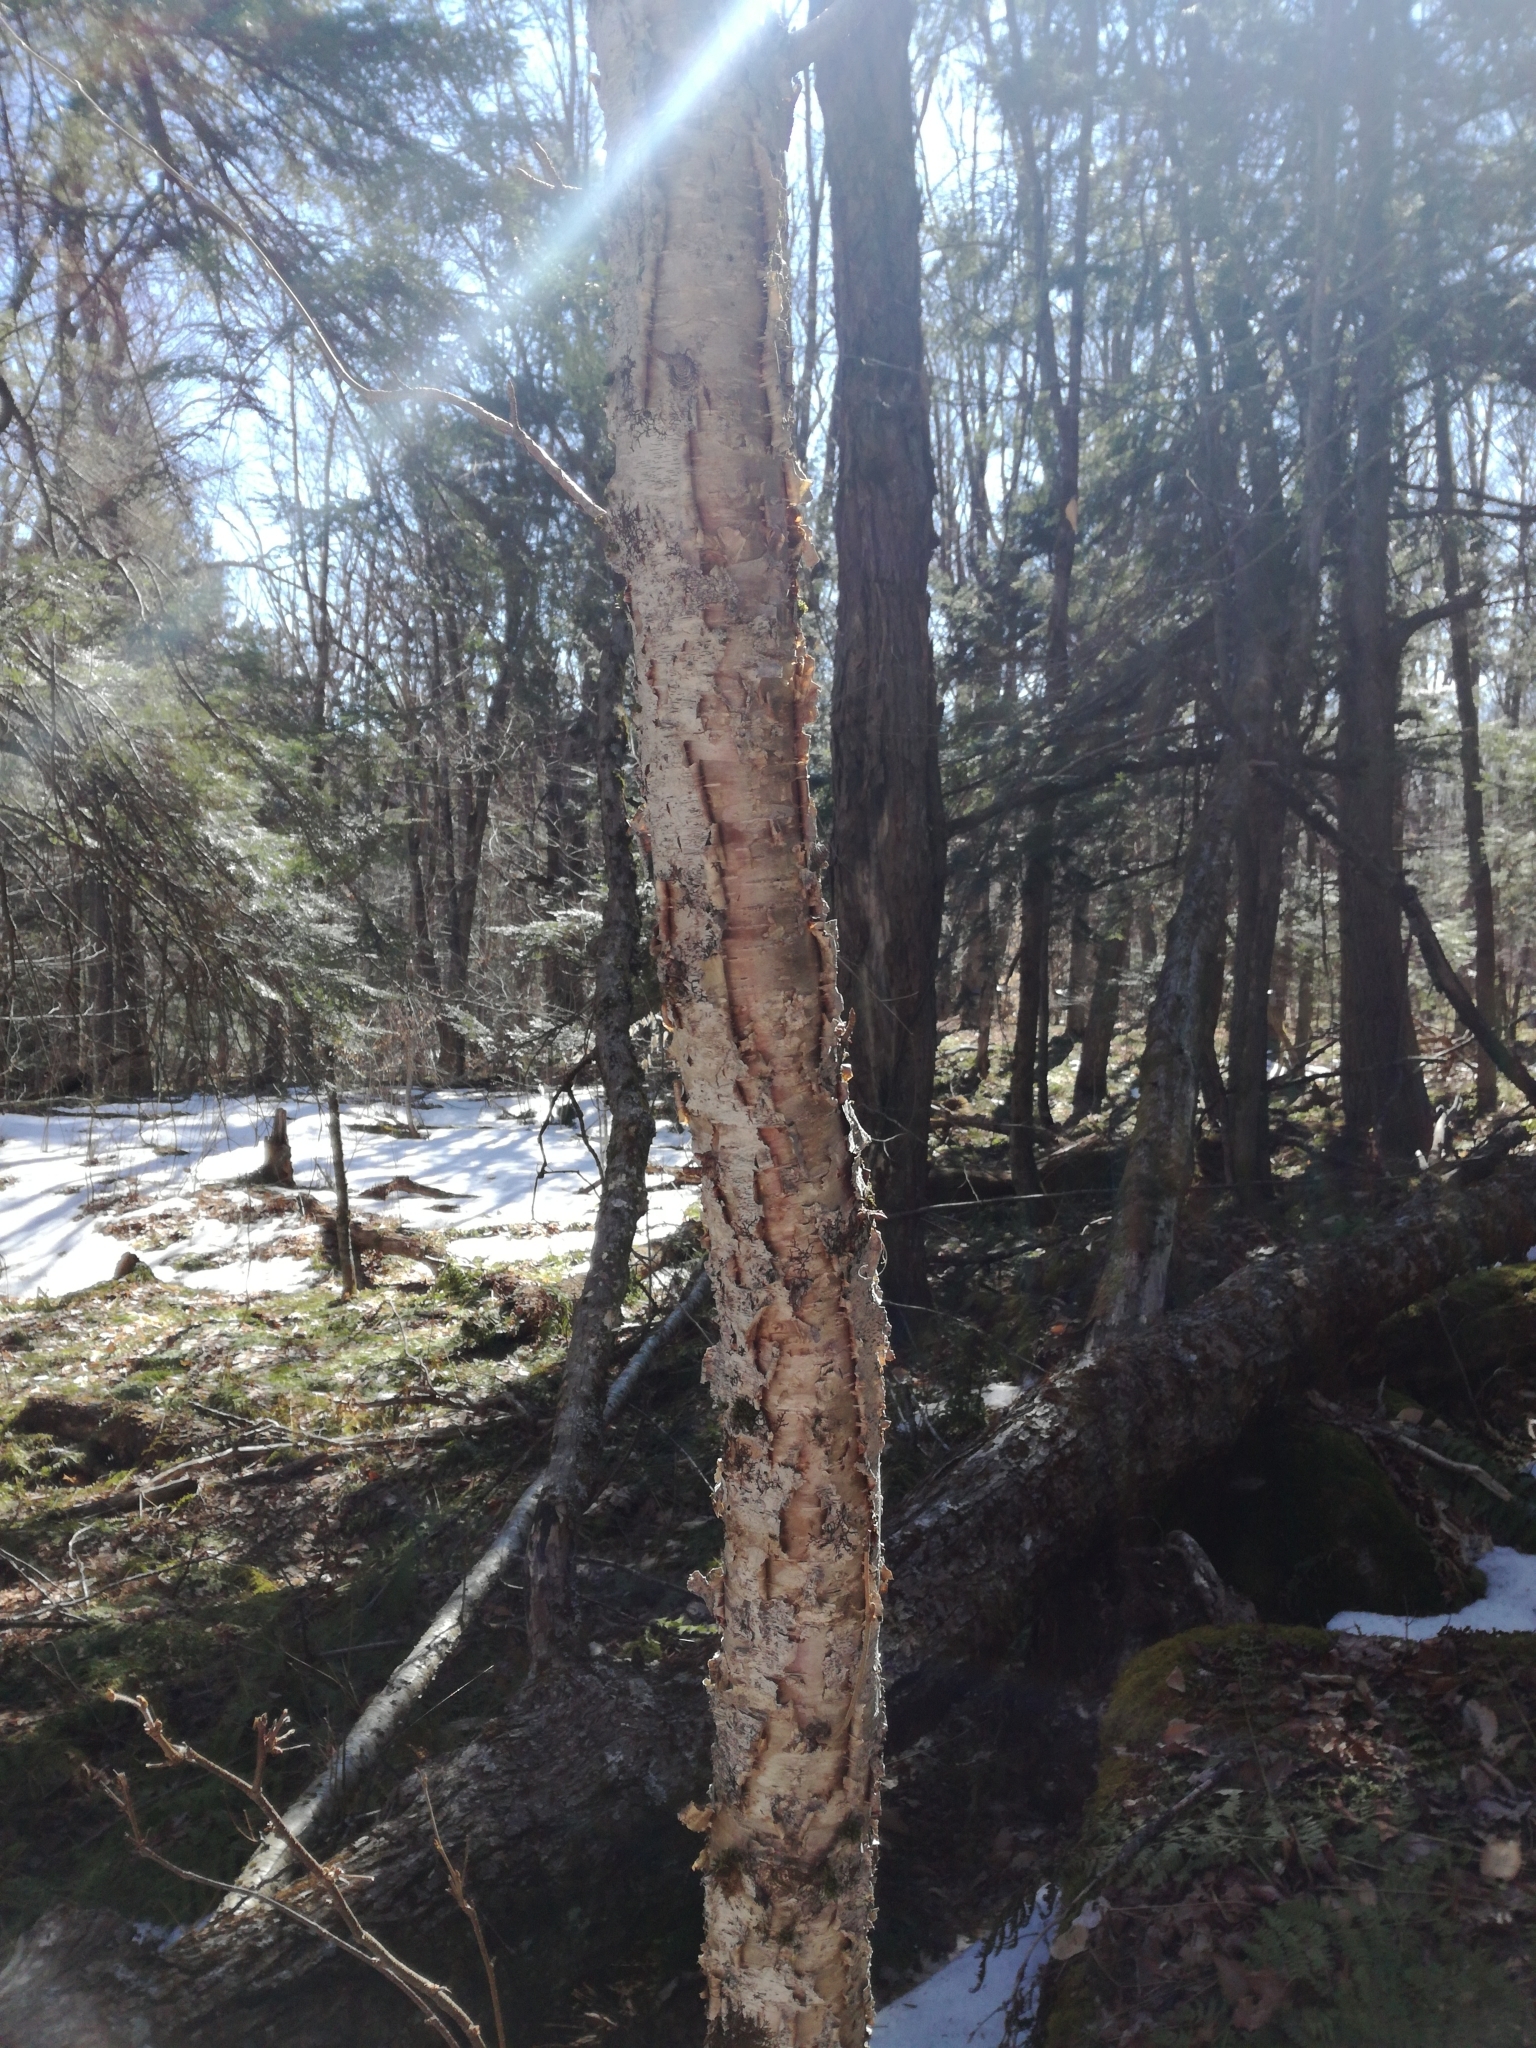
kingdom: Plantae
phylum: Tracheophyta
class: Magnoliopsida
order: Fagales
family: Betulaceae
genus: Betula
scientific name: Betula alleghaniensis
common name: Yellow birch
